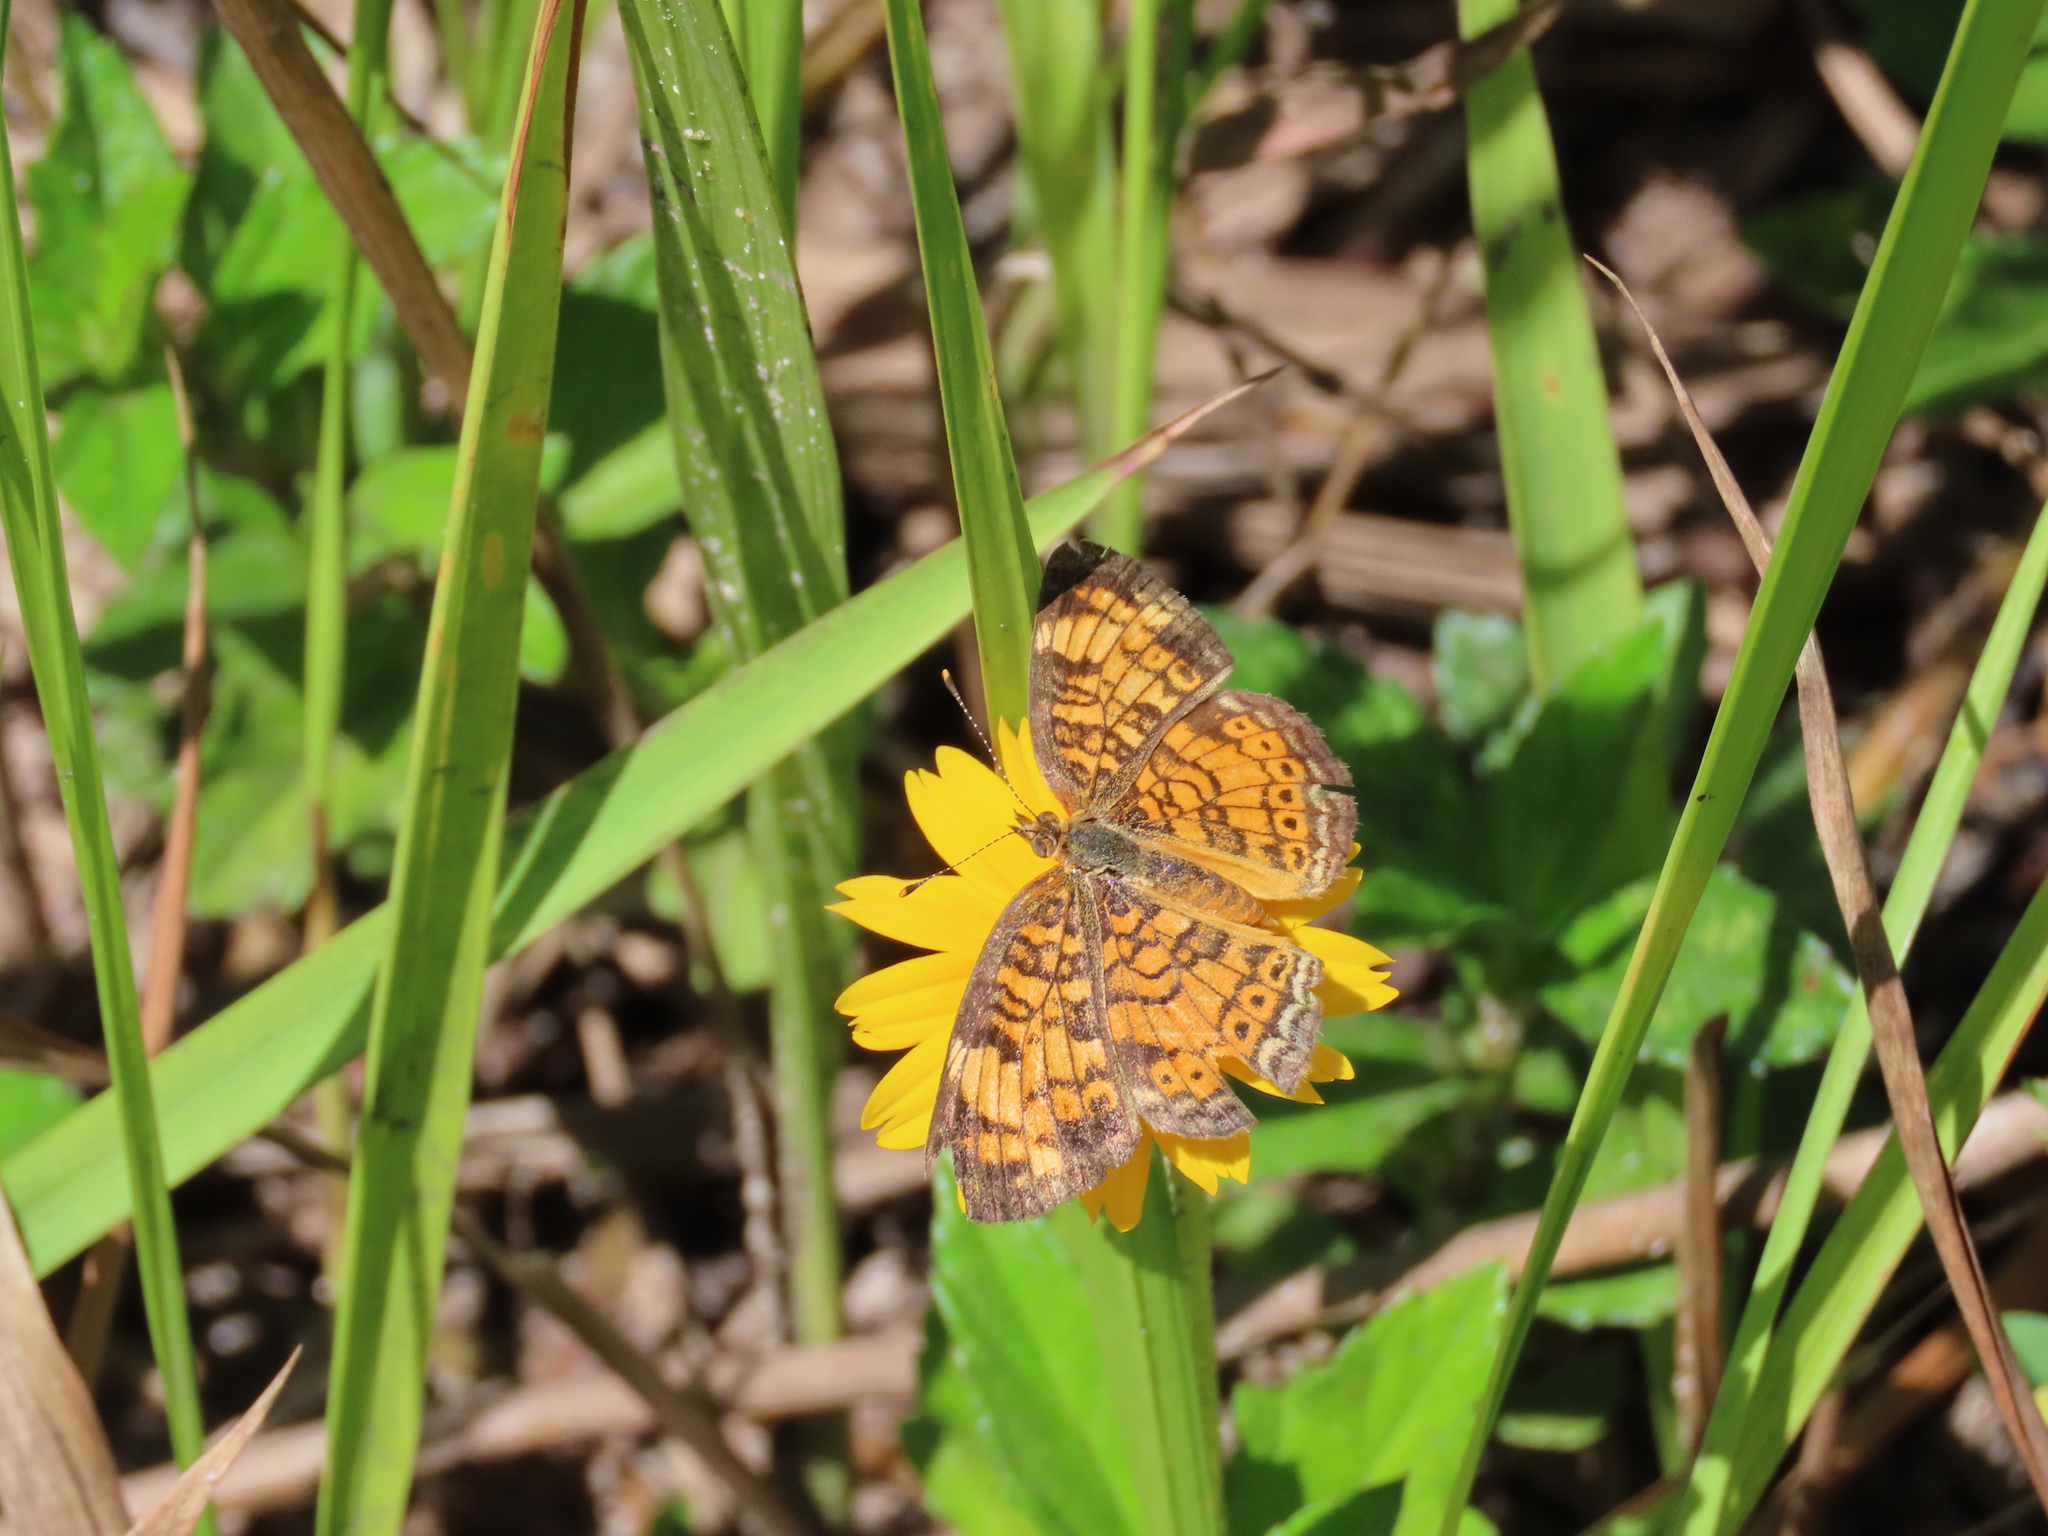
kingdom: Animalia
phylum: Arthropoda
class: Insecta
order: Lepidoptera
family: Nymphalidae
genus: Phyciodes
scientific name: Phyciodes tharos
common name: Pearl crescent
